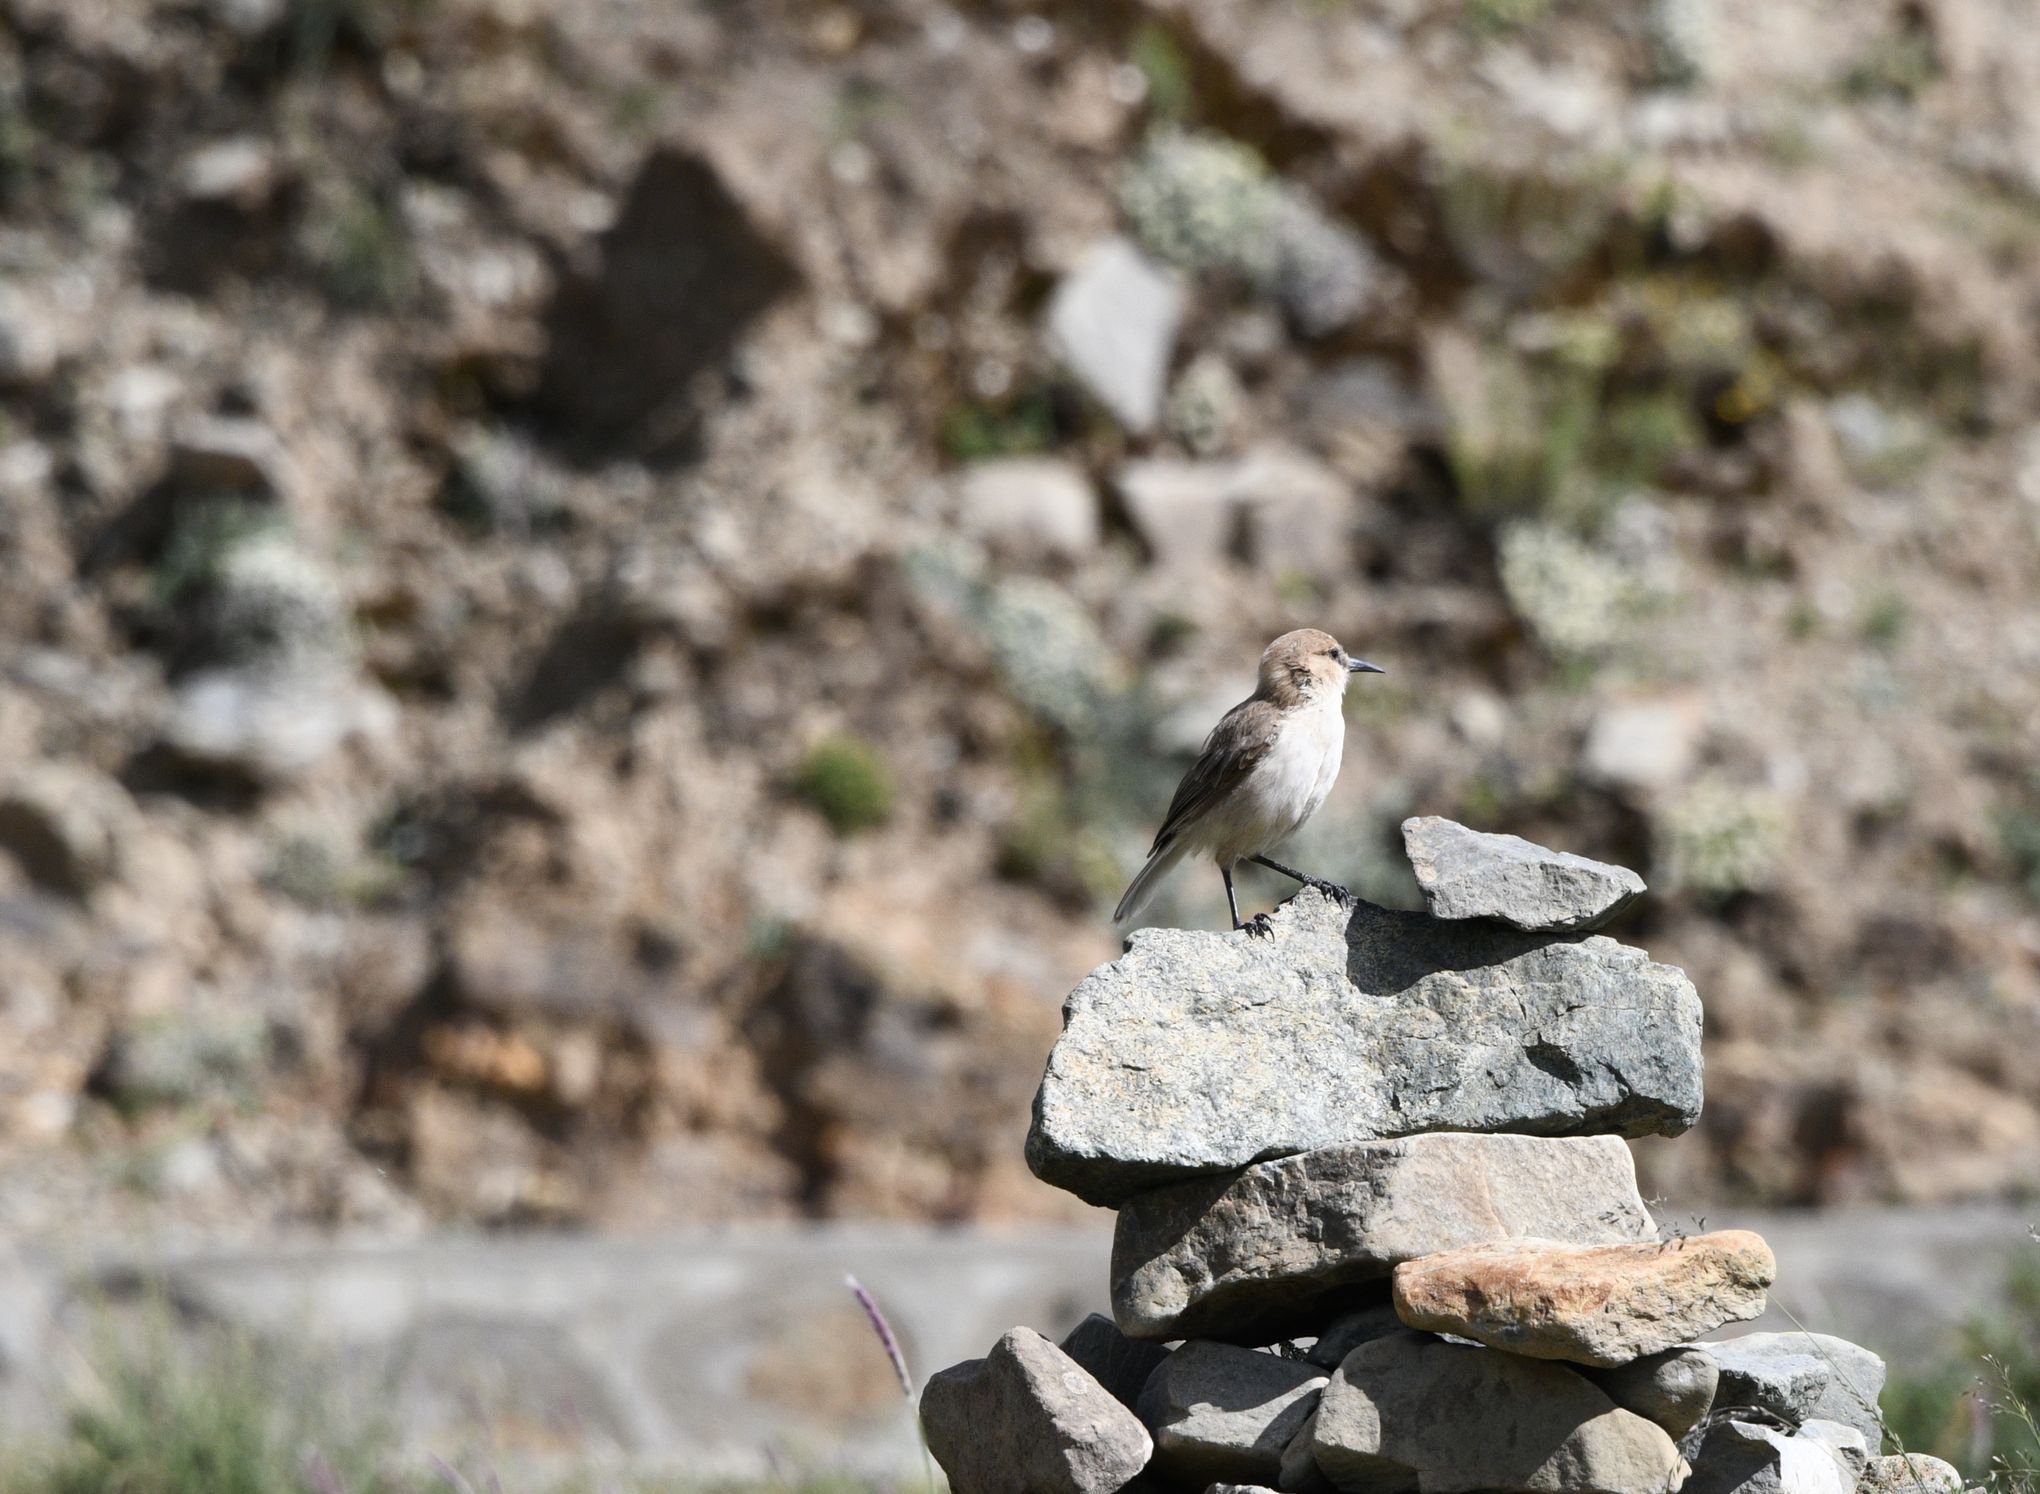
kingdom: Animalia
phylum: Chordata
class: Aves
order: Passeriformes
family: Paridae
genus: Pseudopodoces
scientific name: Pseudopodoces humilis
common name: Ground tit
